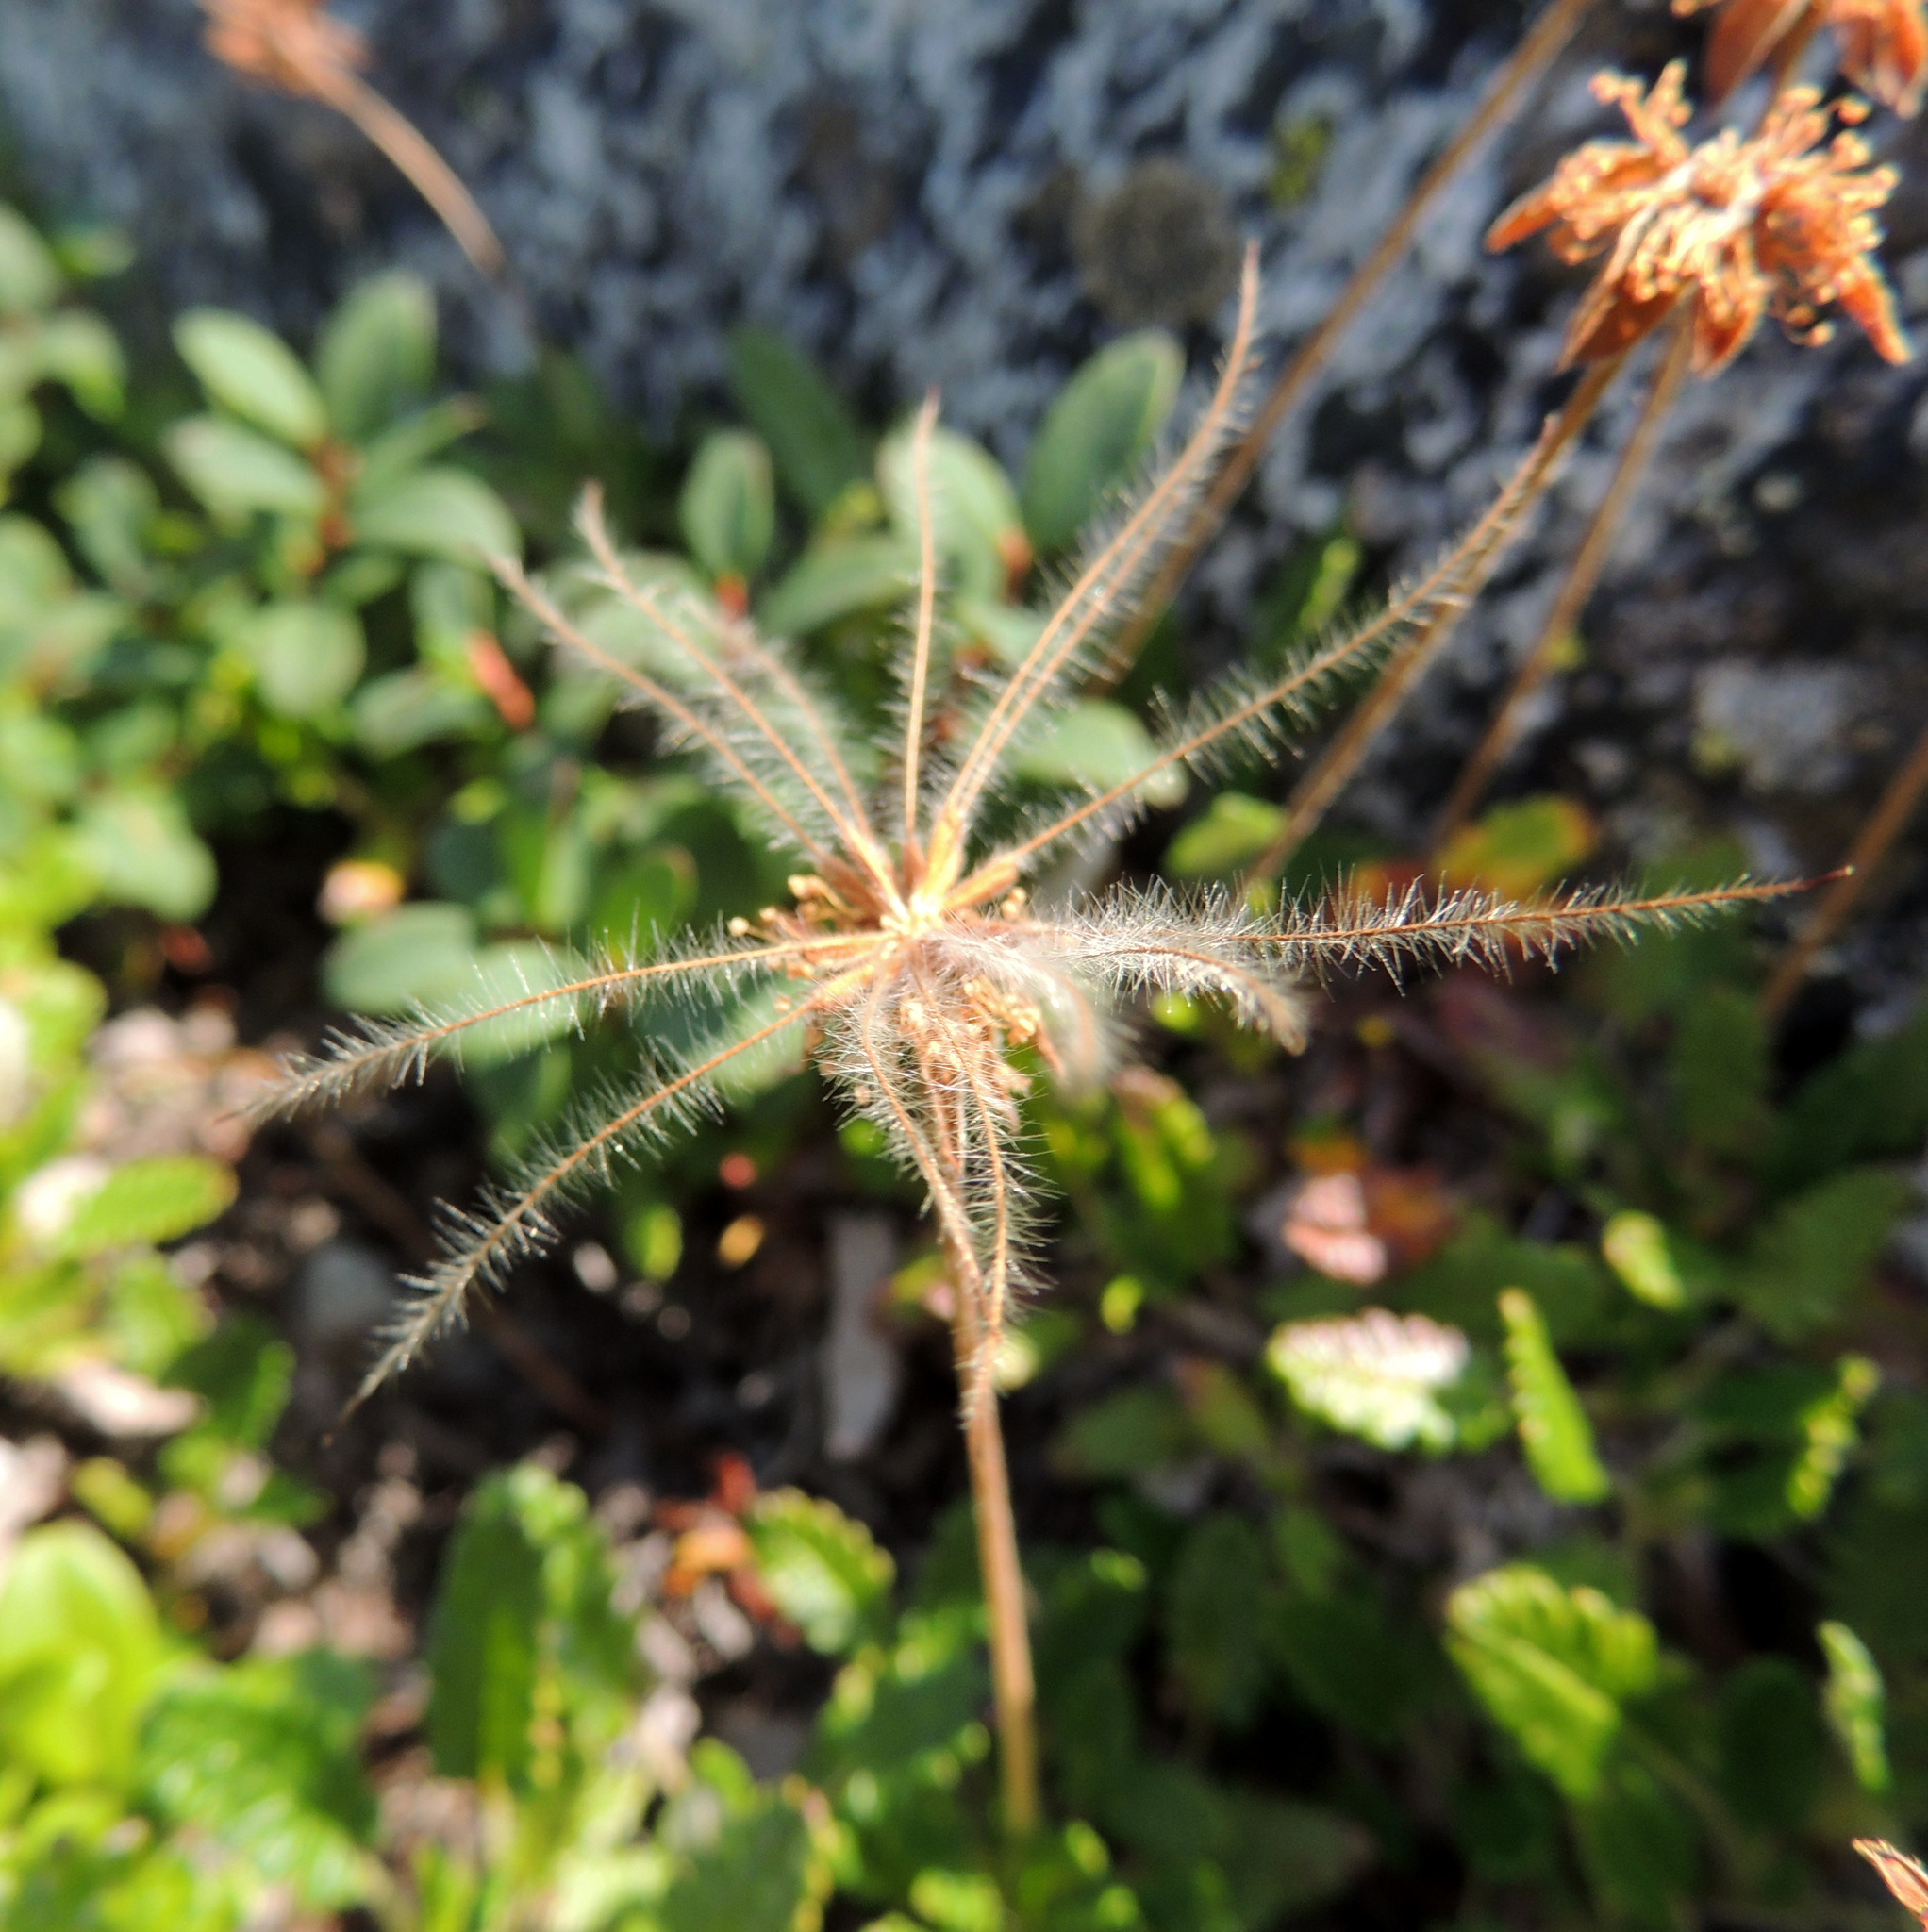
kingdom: Plantae
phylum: Tracheophyta
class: Magnoliopsida
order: Rosales
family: Rosaceae
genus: Dryas
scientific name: Dryas octopetala
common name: Eight-petal mountain-avens
